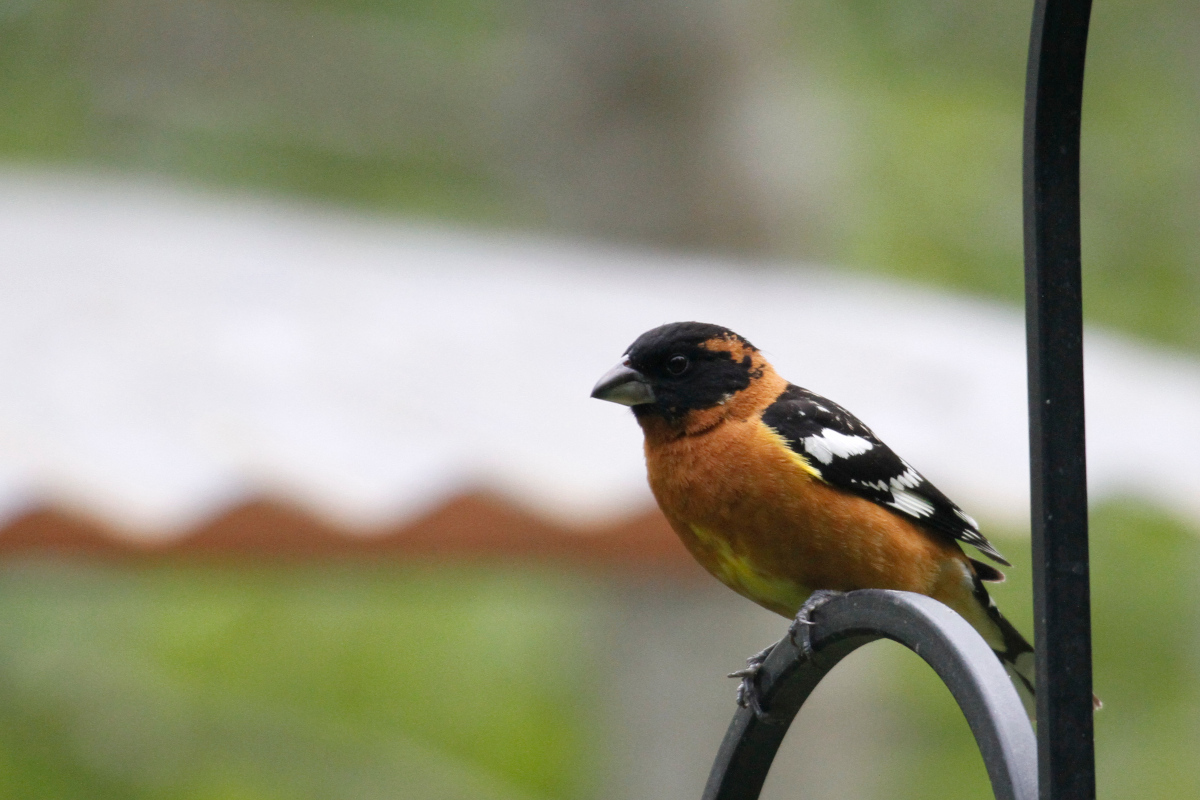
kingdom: Animalia
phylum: Chordata
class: Aves
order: Passeriformes
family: Cardinalidae
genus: Pheucticus
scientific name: Pheucticus melanocephalus
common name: Black-headed grosbeak
